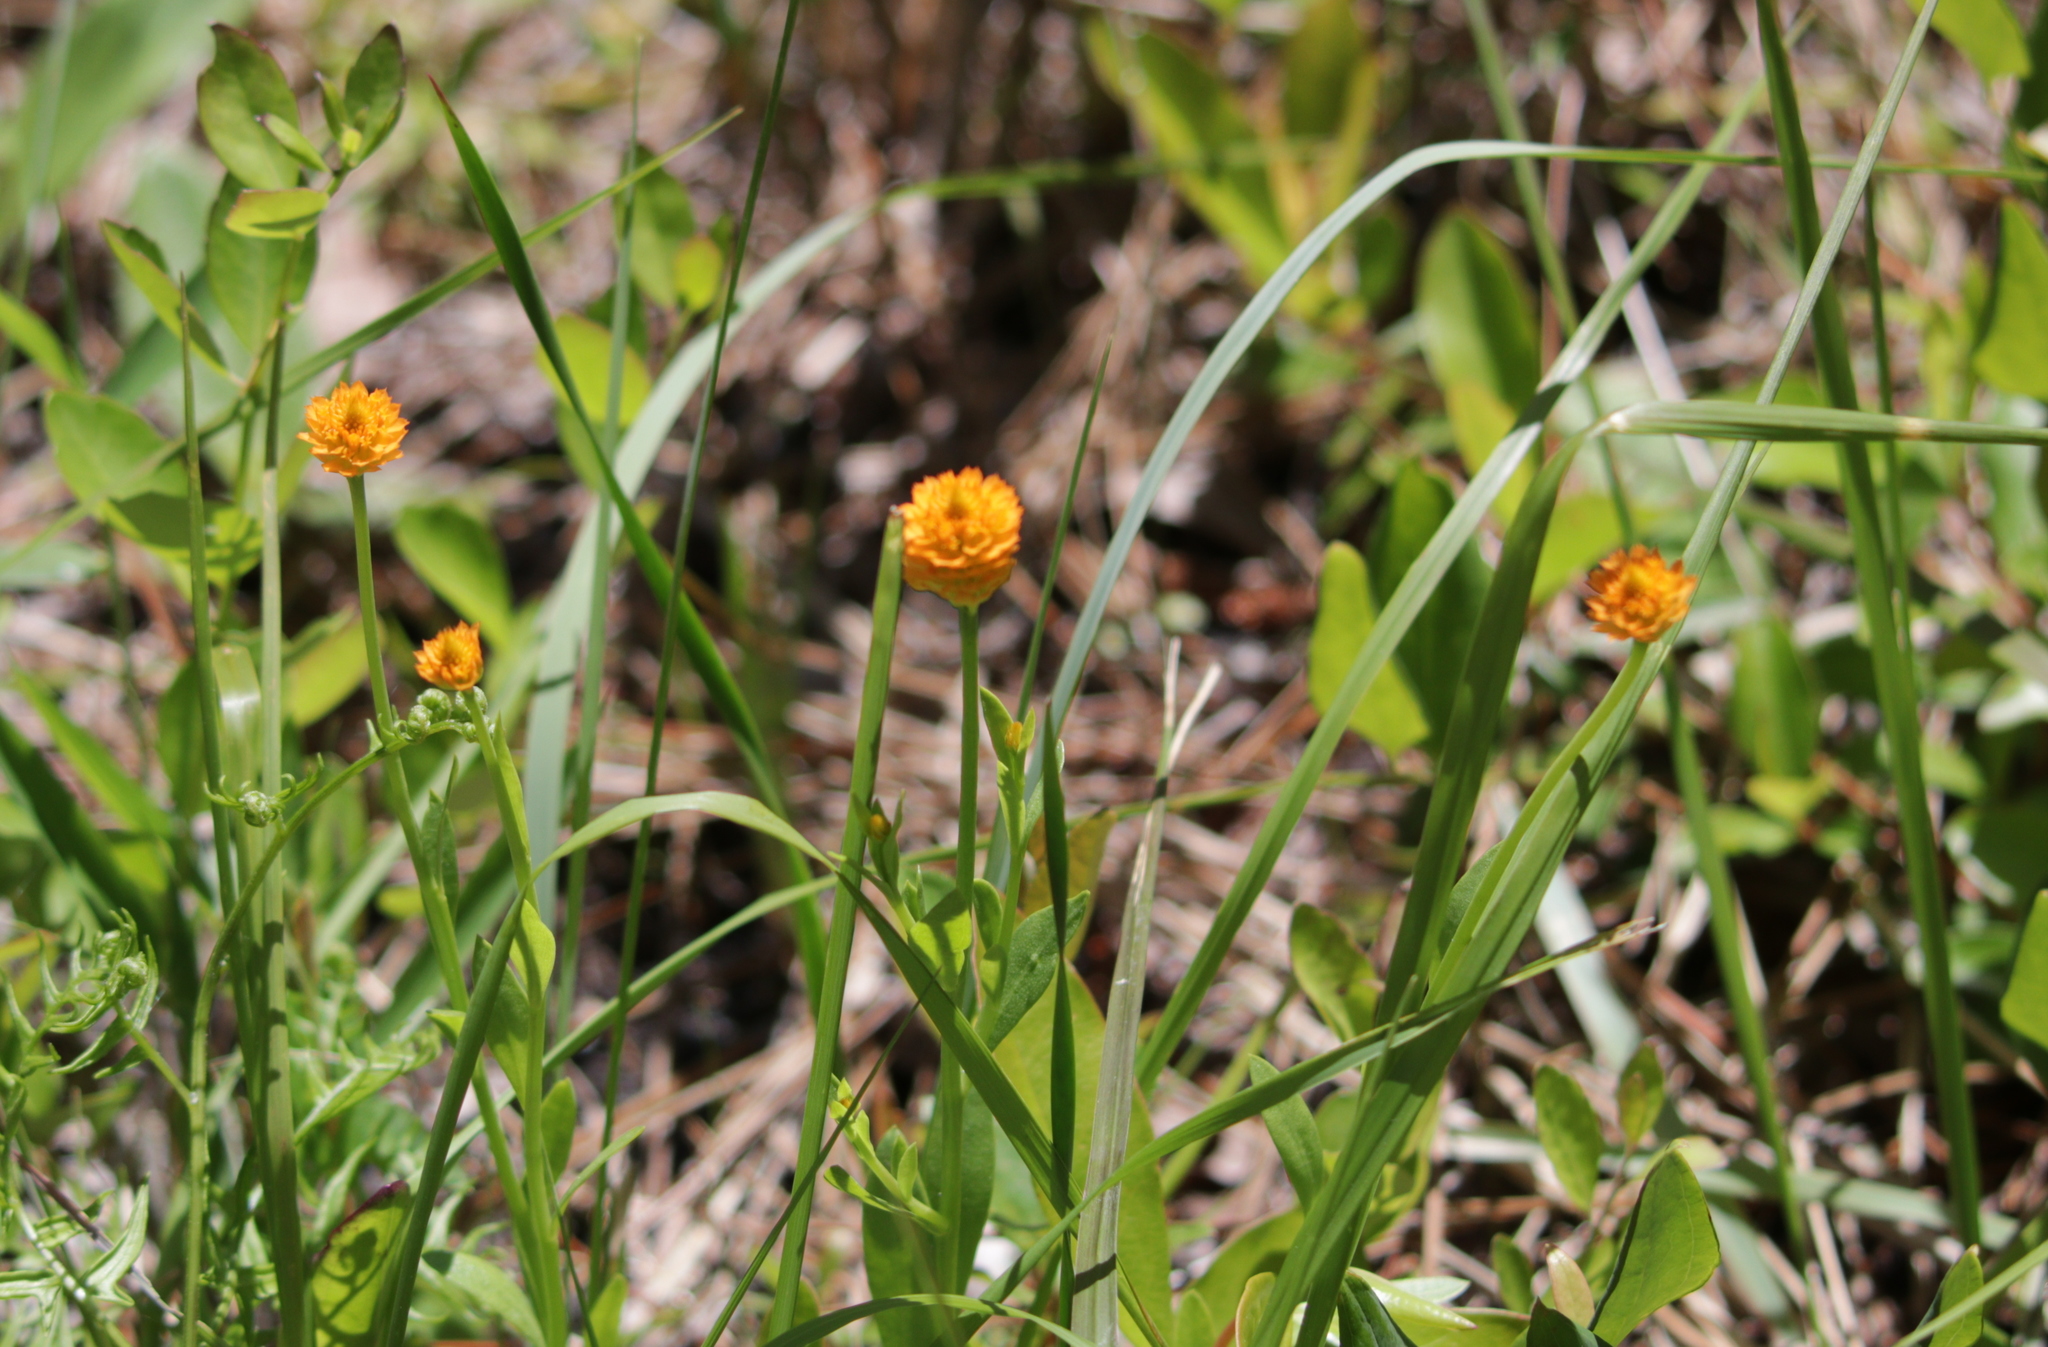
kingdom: Plantae
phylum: Tracheophyta
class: Magnoliopsida
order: Fabales
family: Polygalaceae
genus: Polygala
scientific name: Polygala lutea
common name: Orange milkwort
